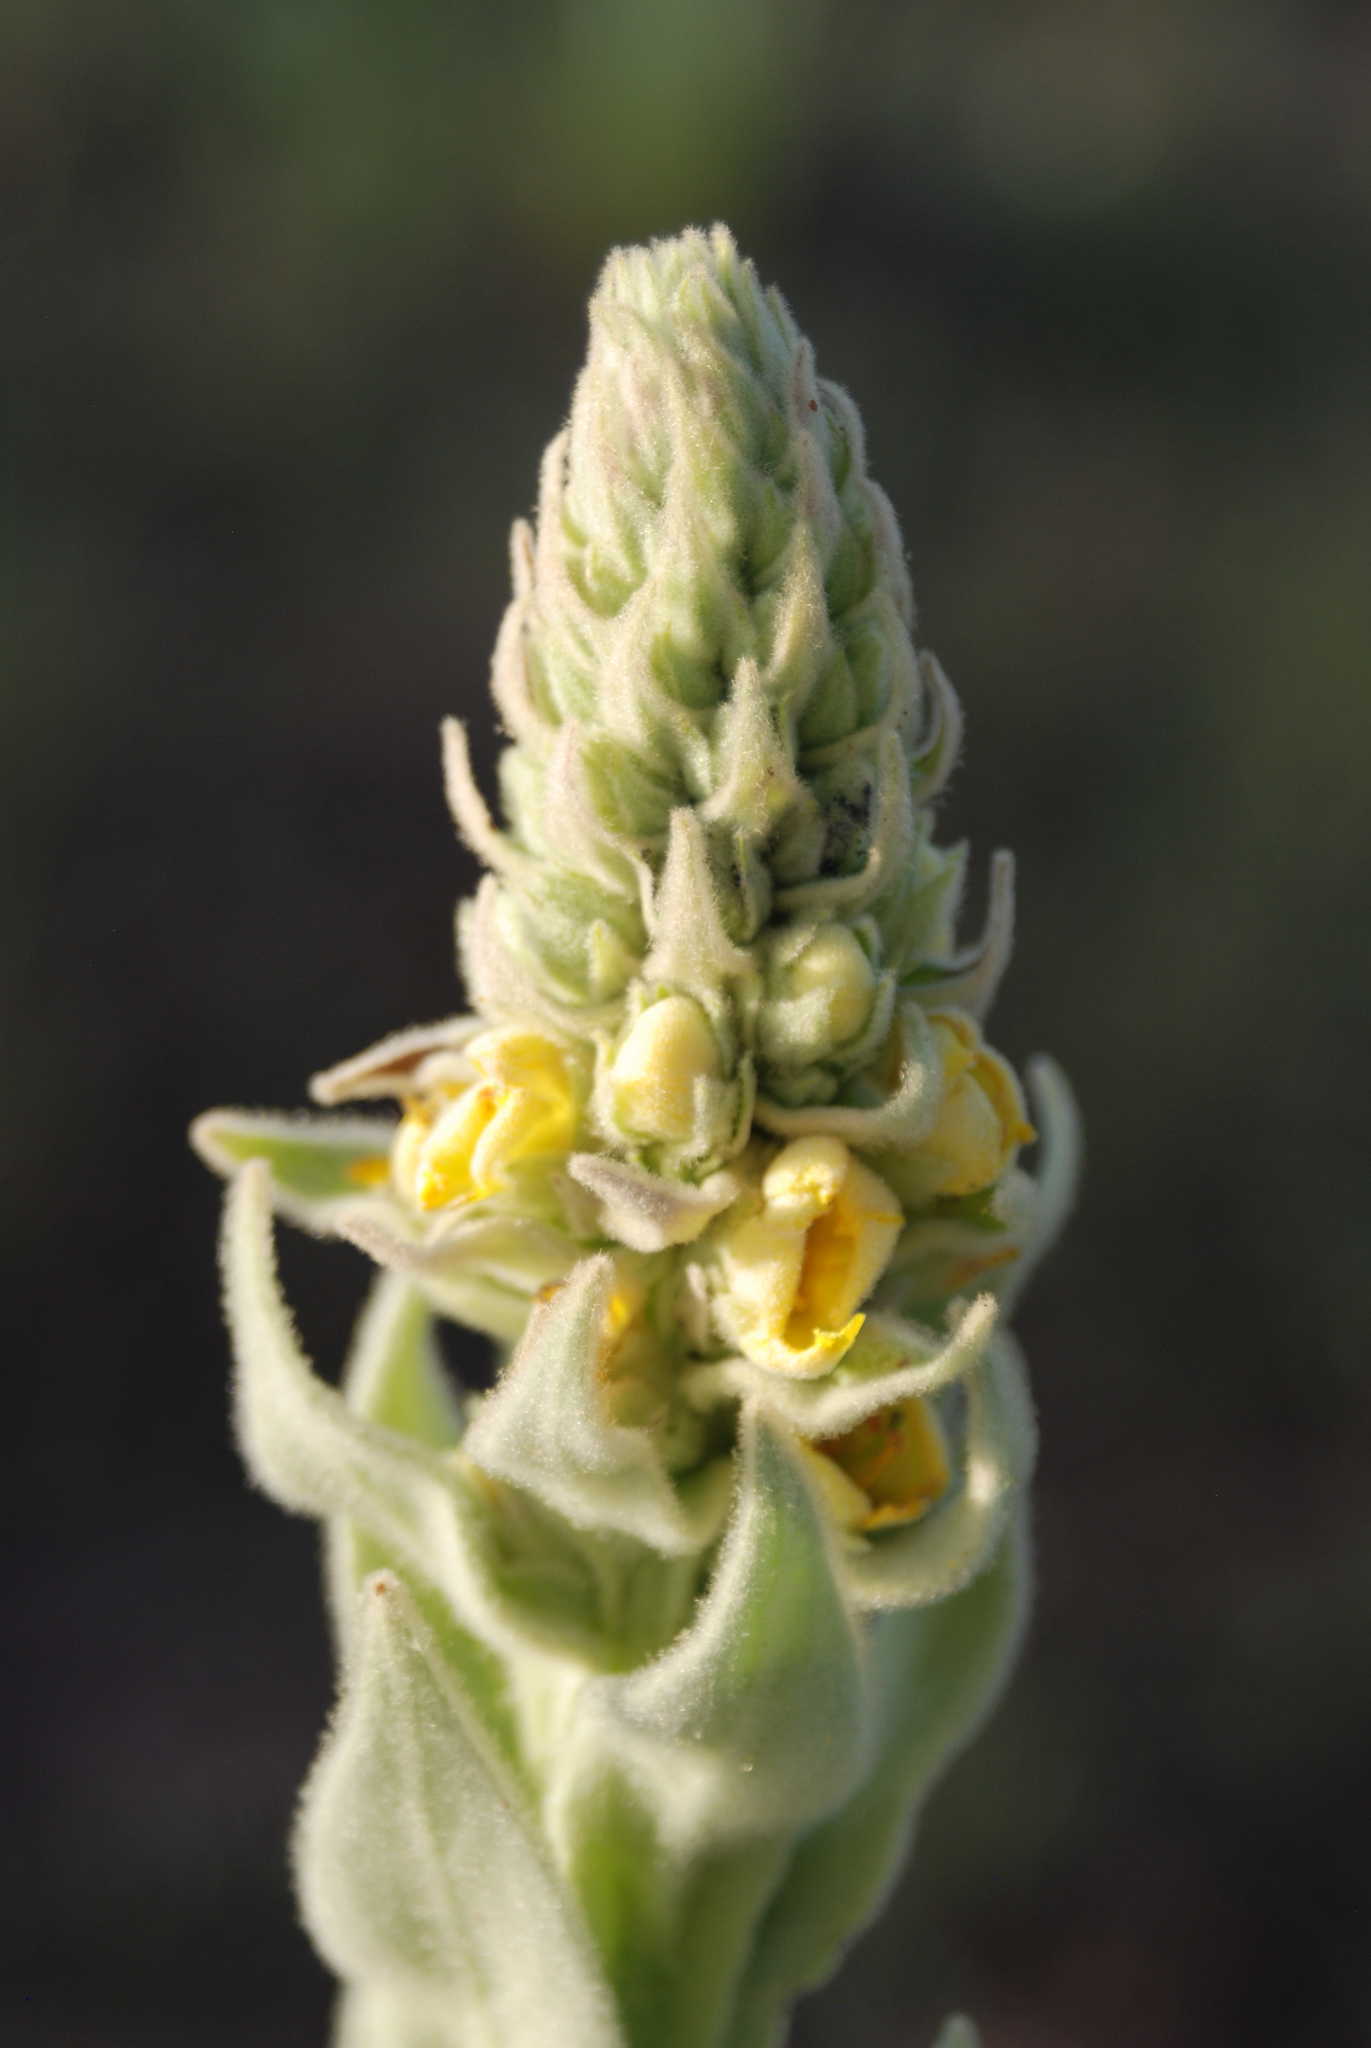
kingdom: Plantae
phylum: Tracheophyta
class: Magnoliopsida
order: Lamiales
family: Scrophulariaceae
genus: Verbascum
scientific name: Verbascum thapsus
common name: Common mullein
